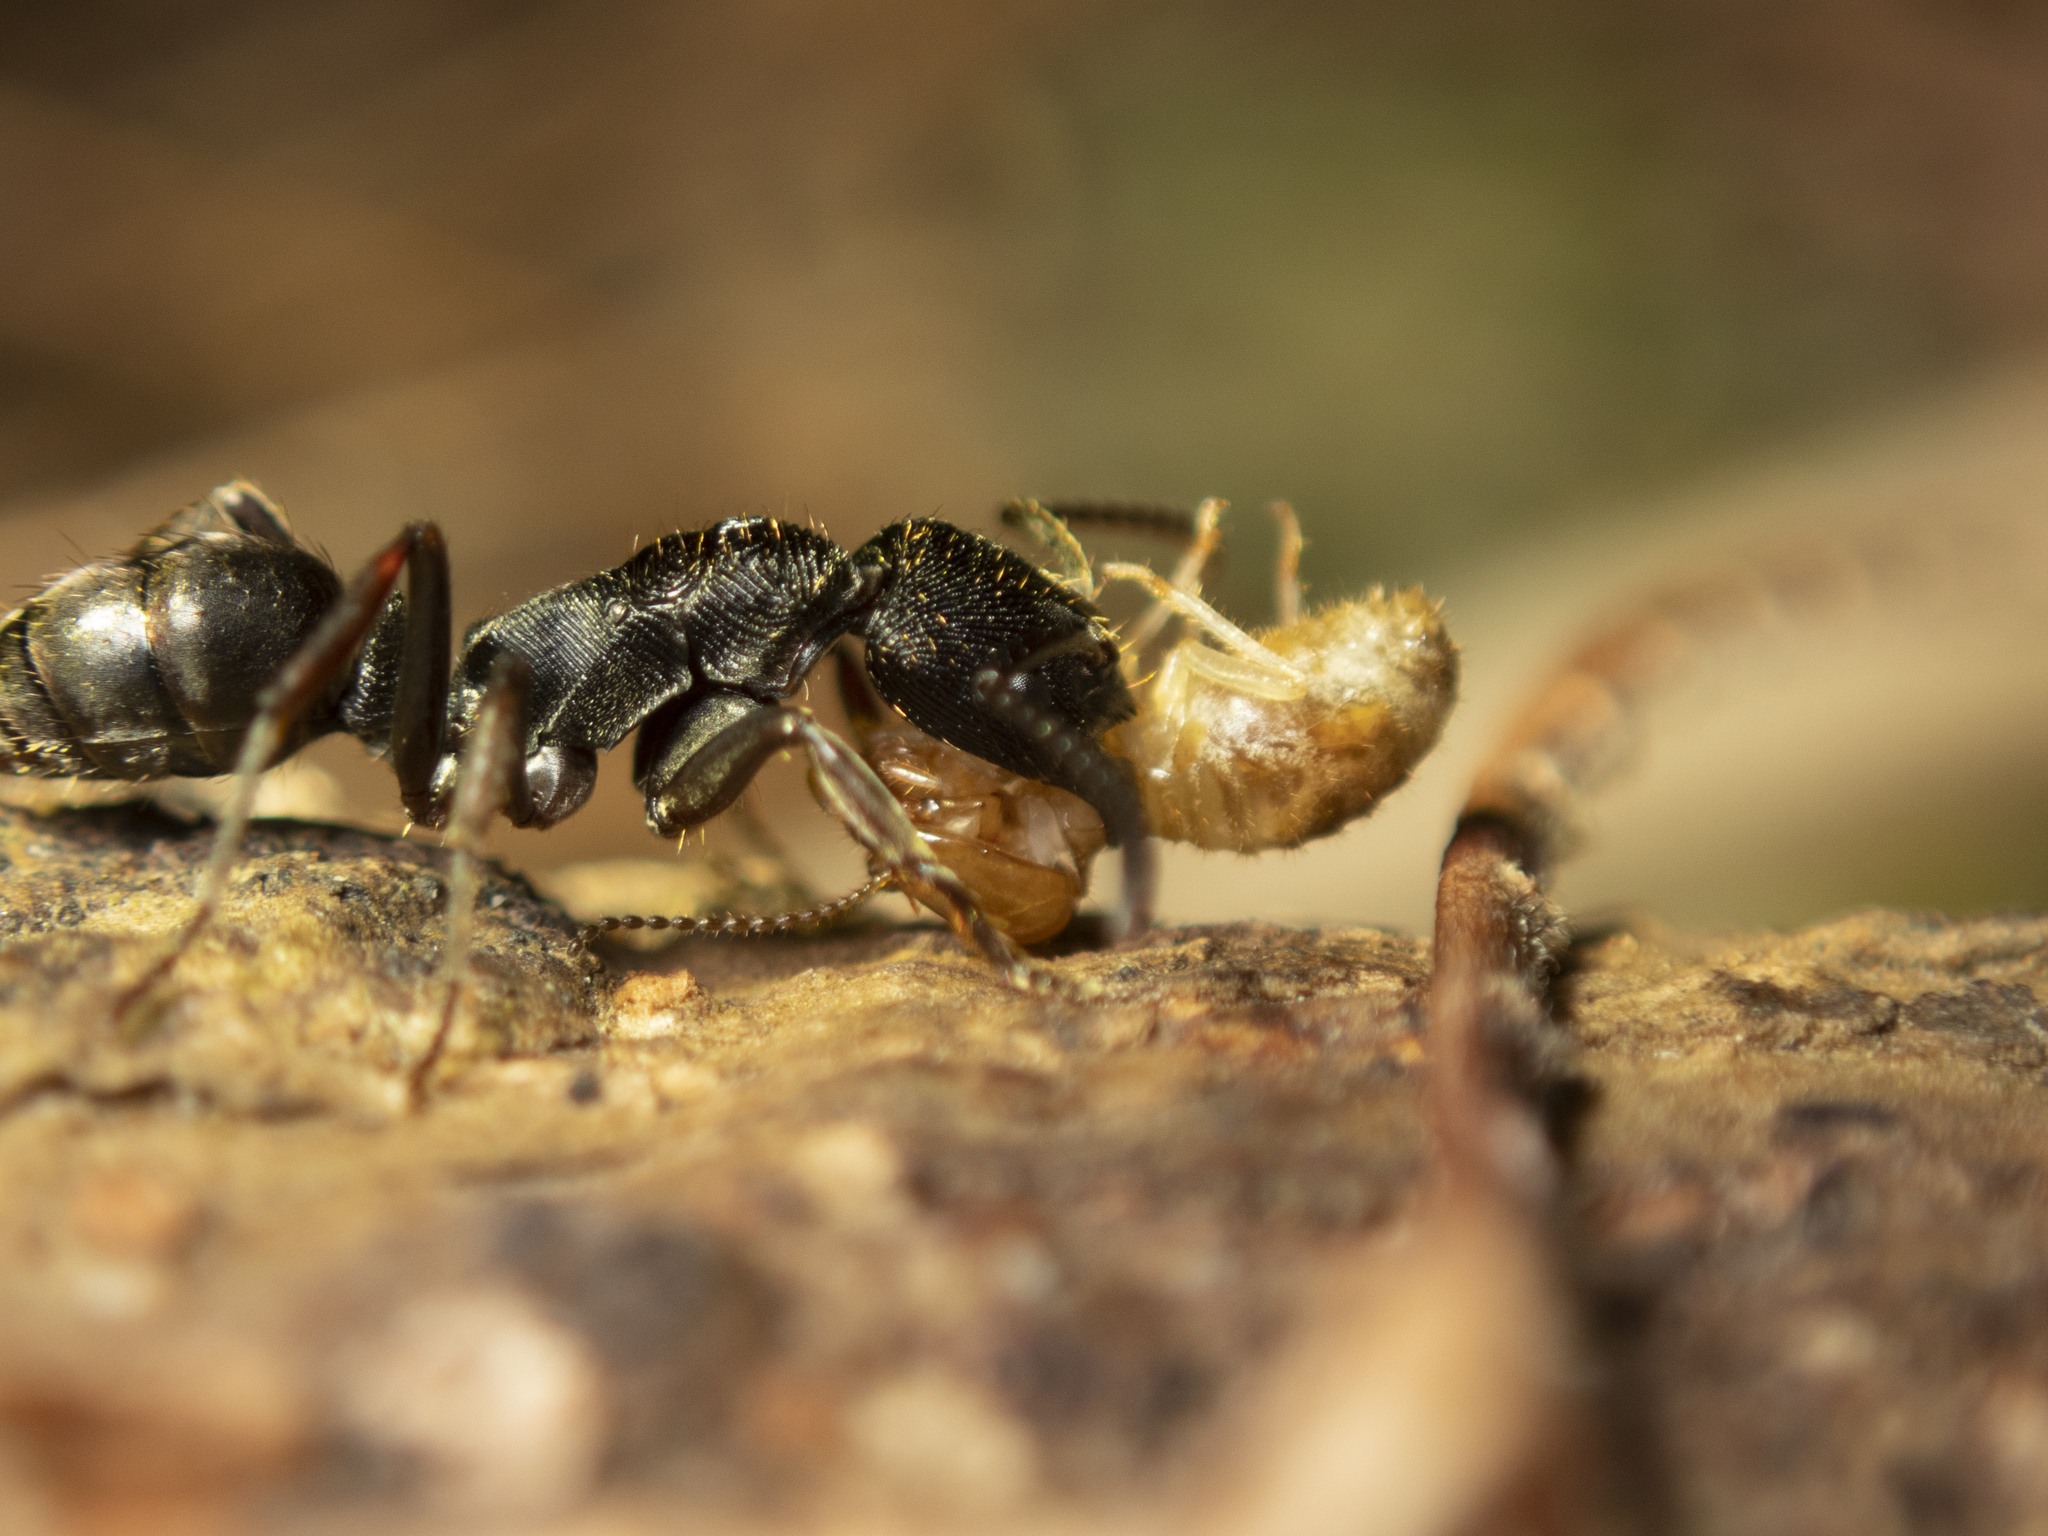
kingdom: Animalia
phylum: Arthropoda
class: Insecta
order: Hymenoptera
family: Formicidae
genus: Odontoponera
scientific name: Odontoponera denticulata
